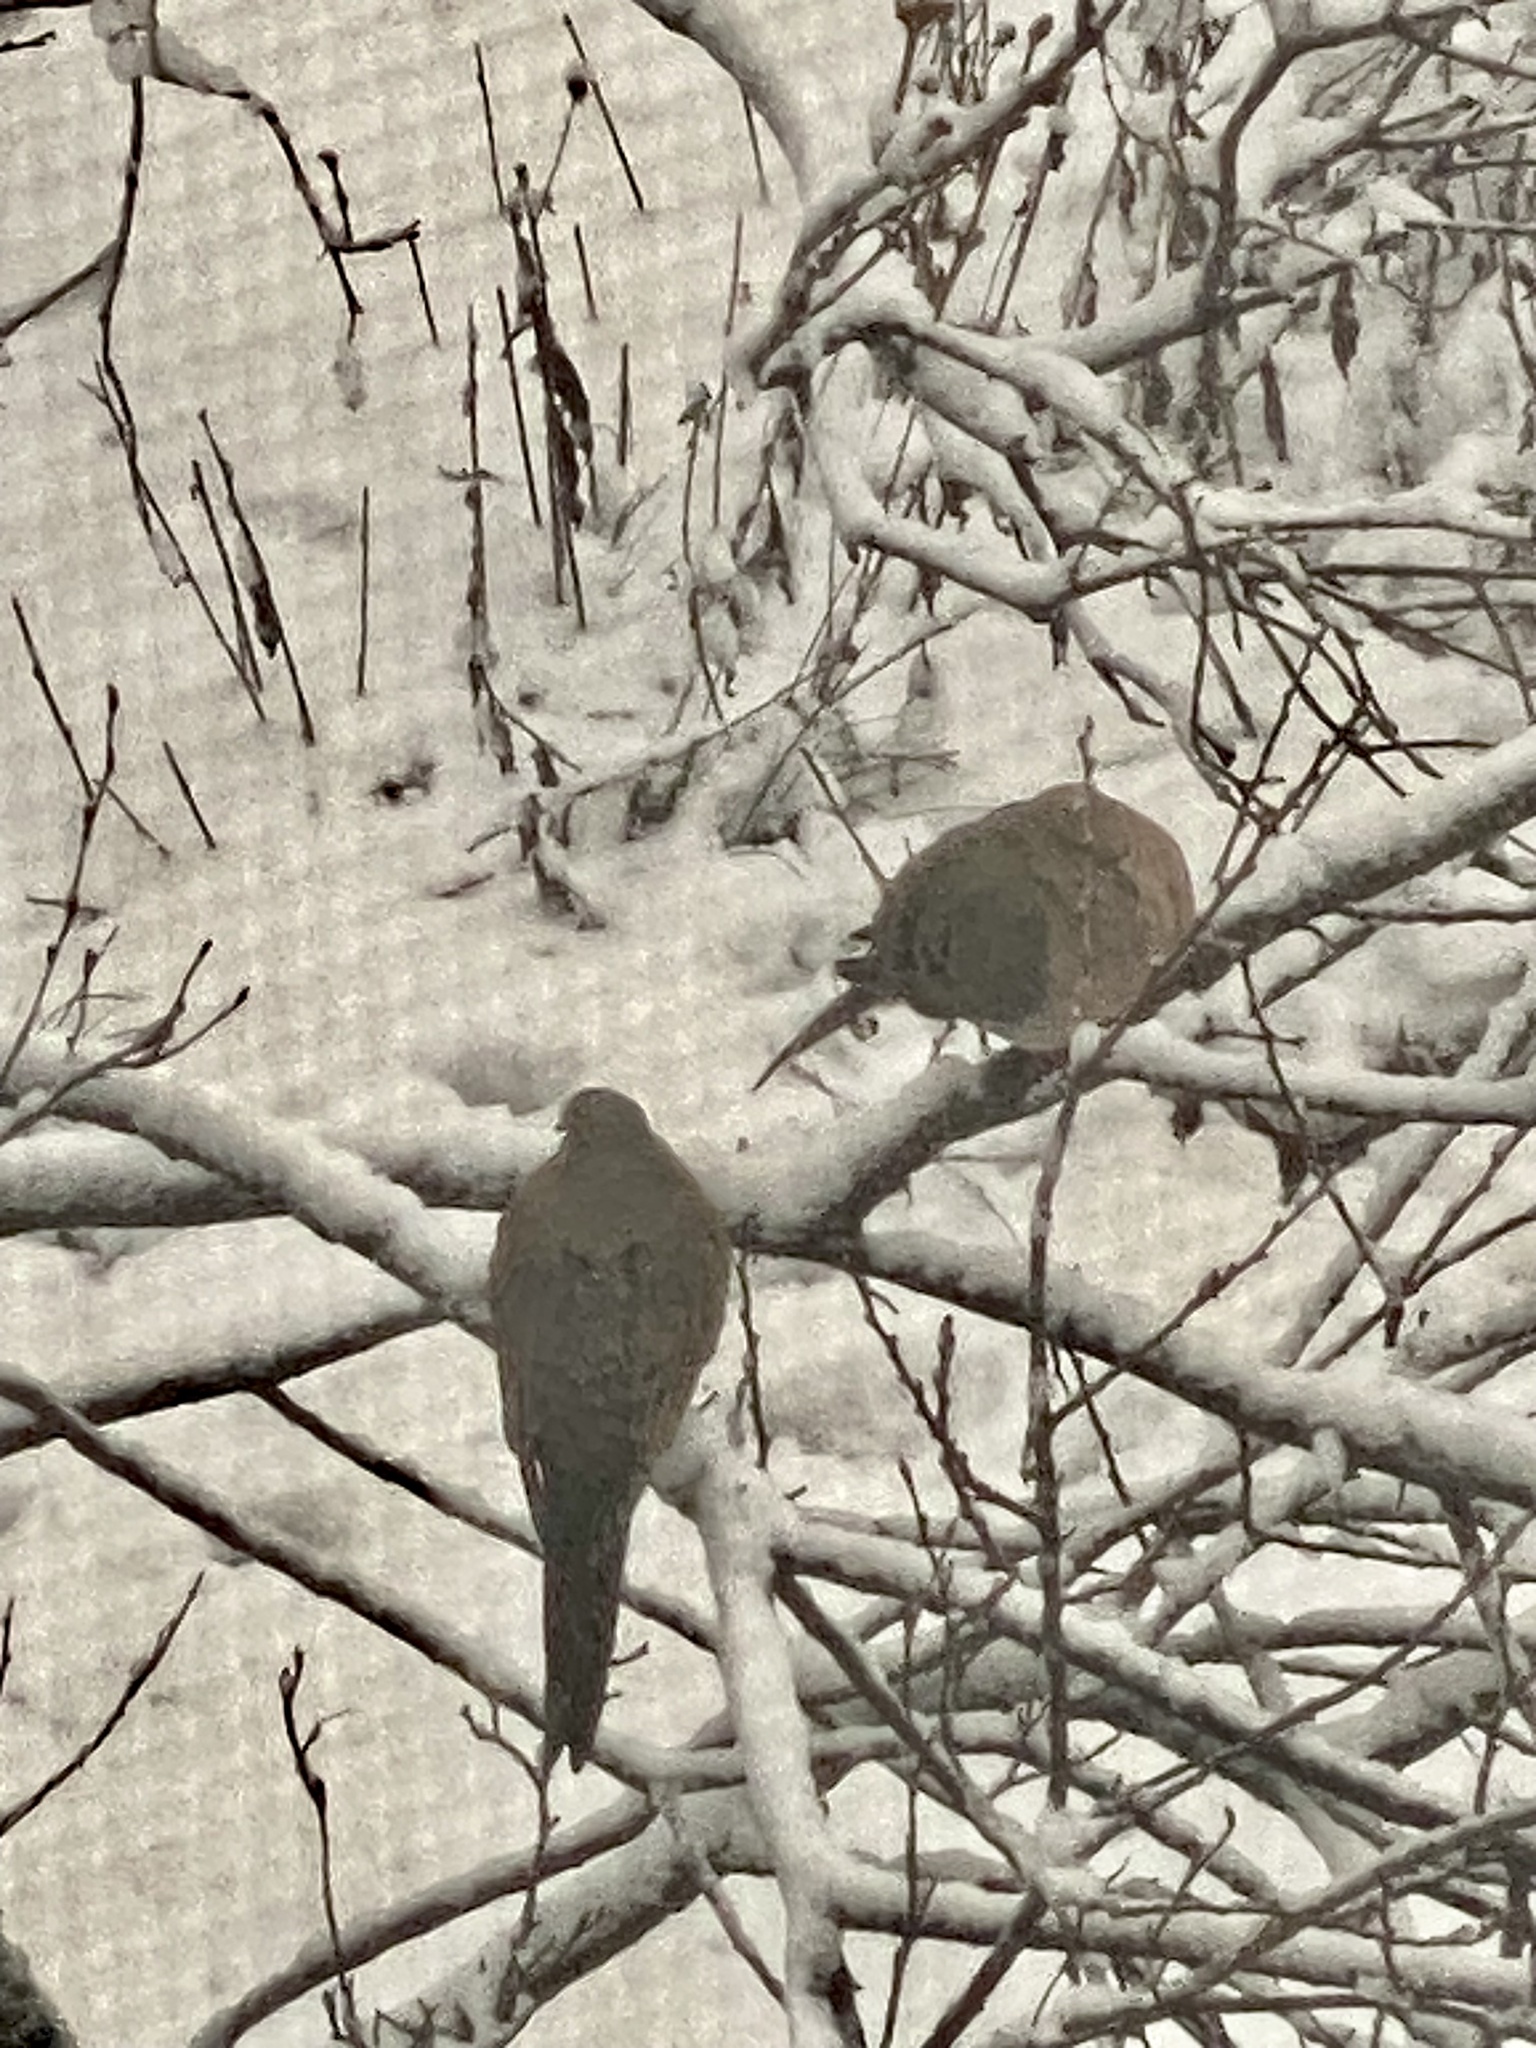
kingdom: Animalia
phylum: Chordata
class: Aves
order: Columbiformes
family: Columbidae
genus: Zenaida
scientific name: Zenaida macroura
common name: Mourning dove
